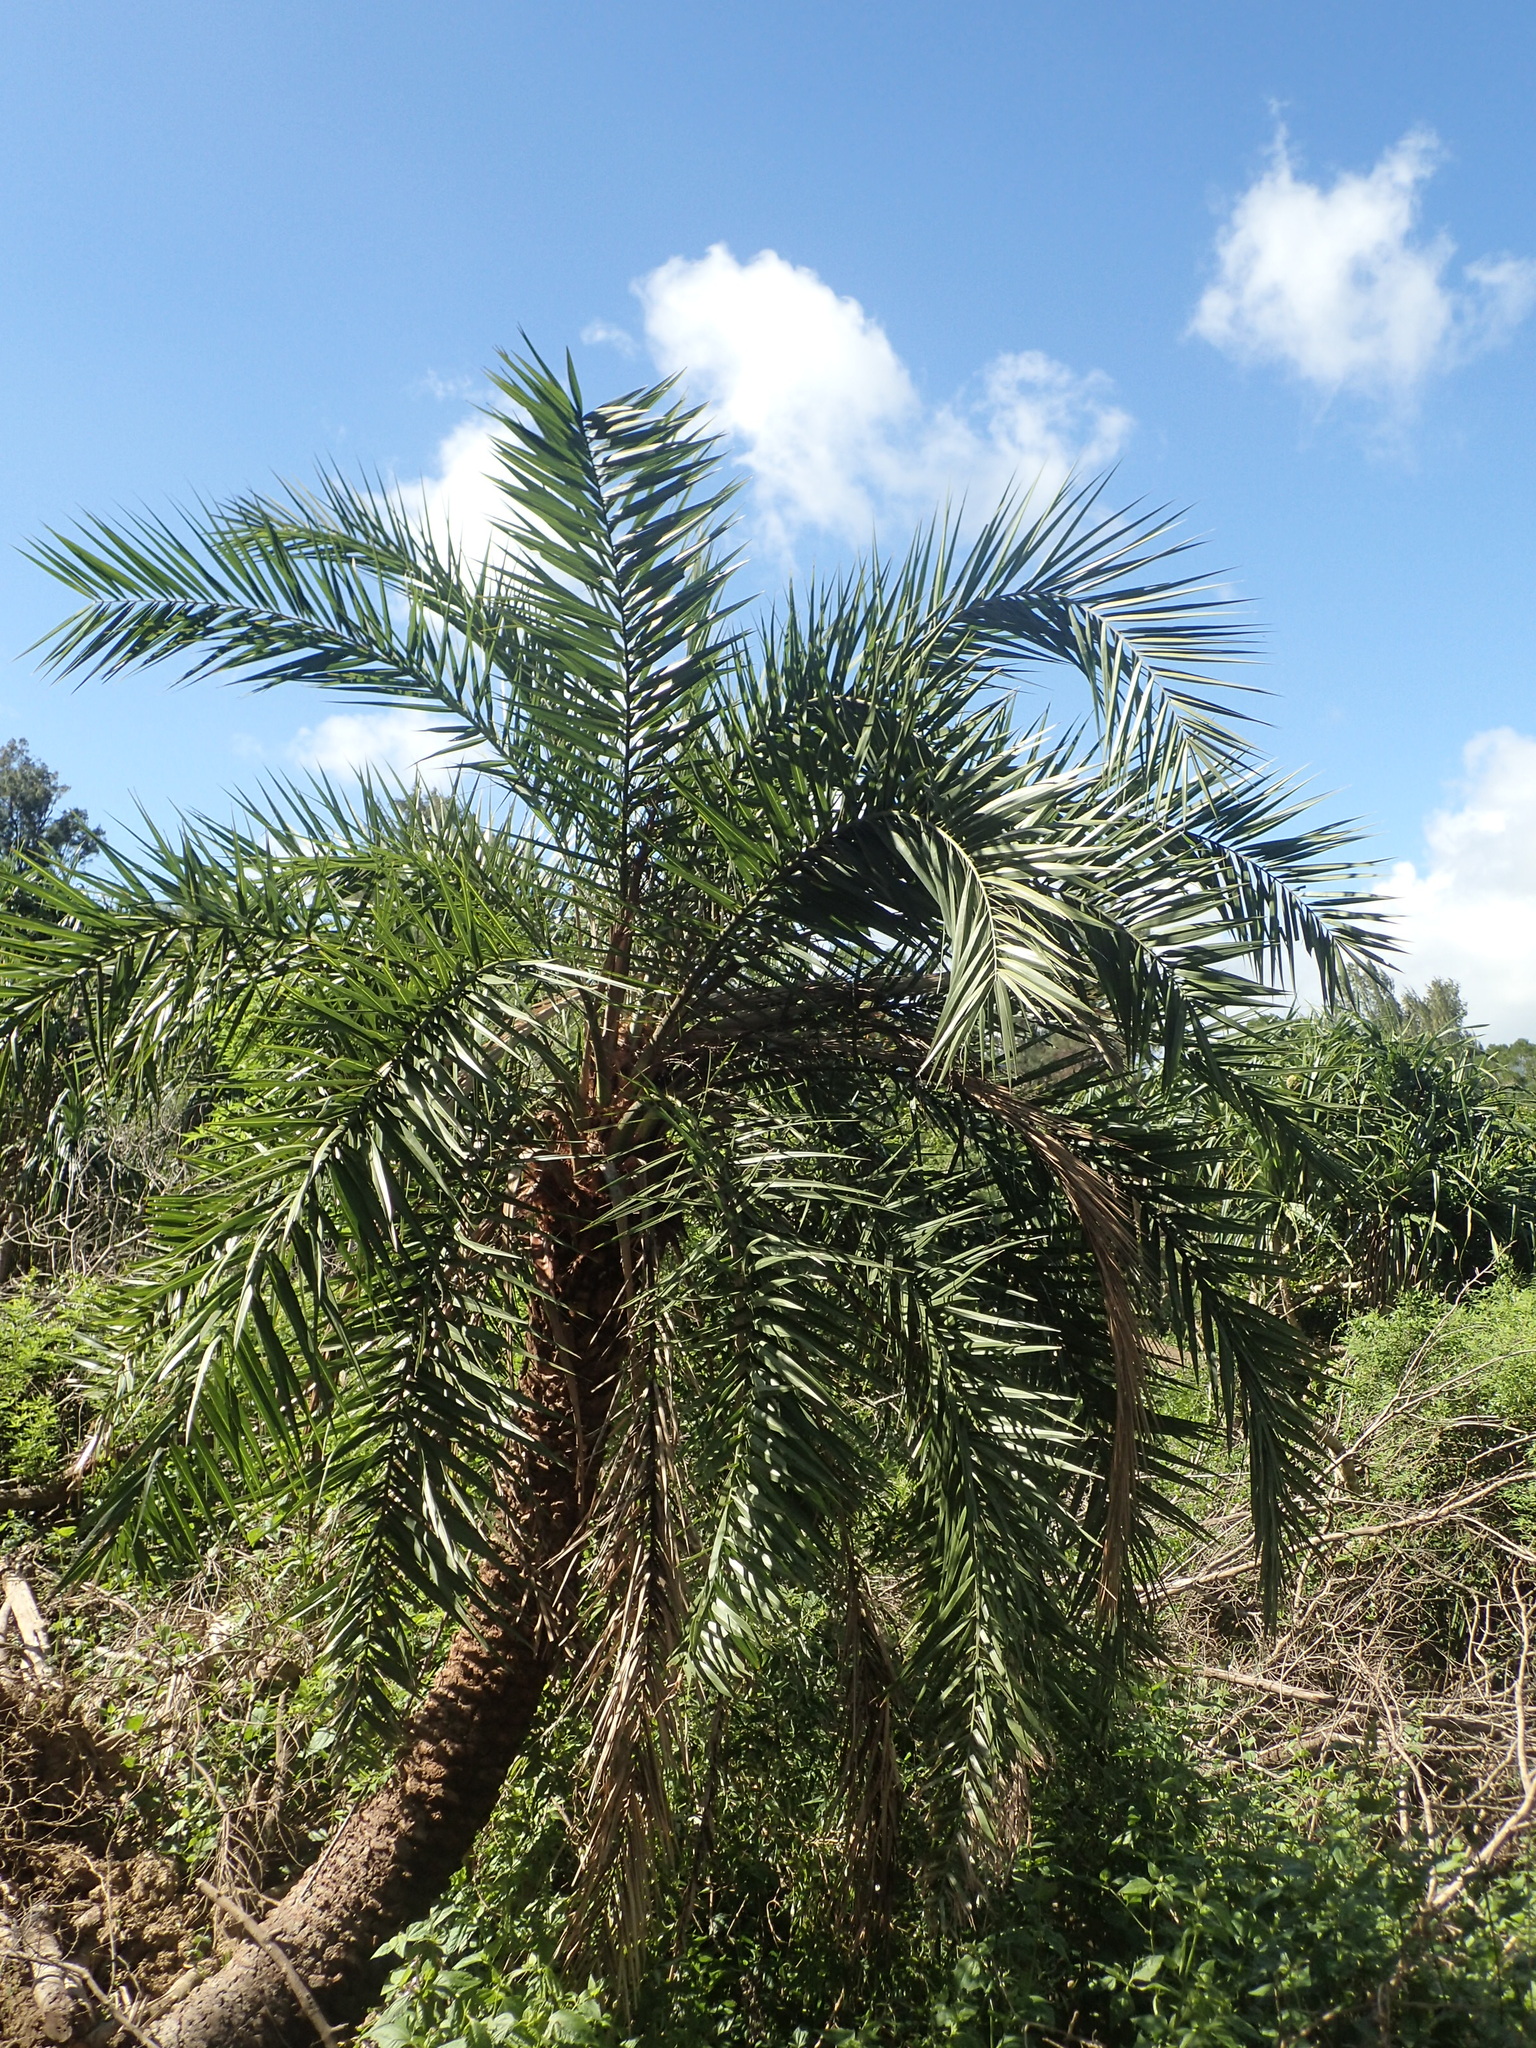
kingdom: Plantae
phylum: Tracheophyta
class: Liliopsida
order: Arecales
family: Arecaceae
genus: Phoenix
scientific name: Phoenix loureiroi
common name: Loureiro's palm
